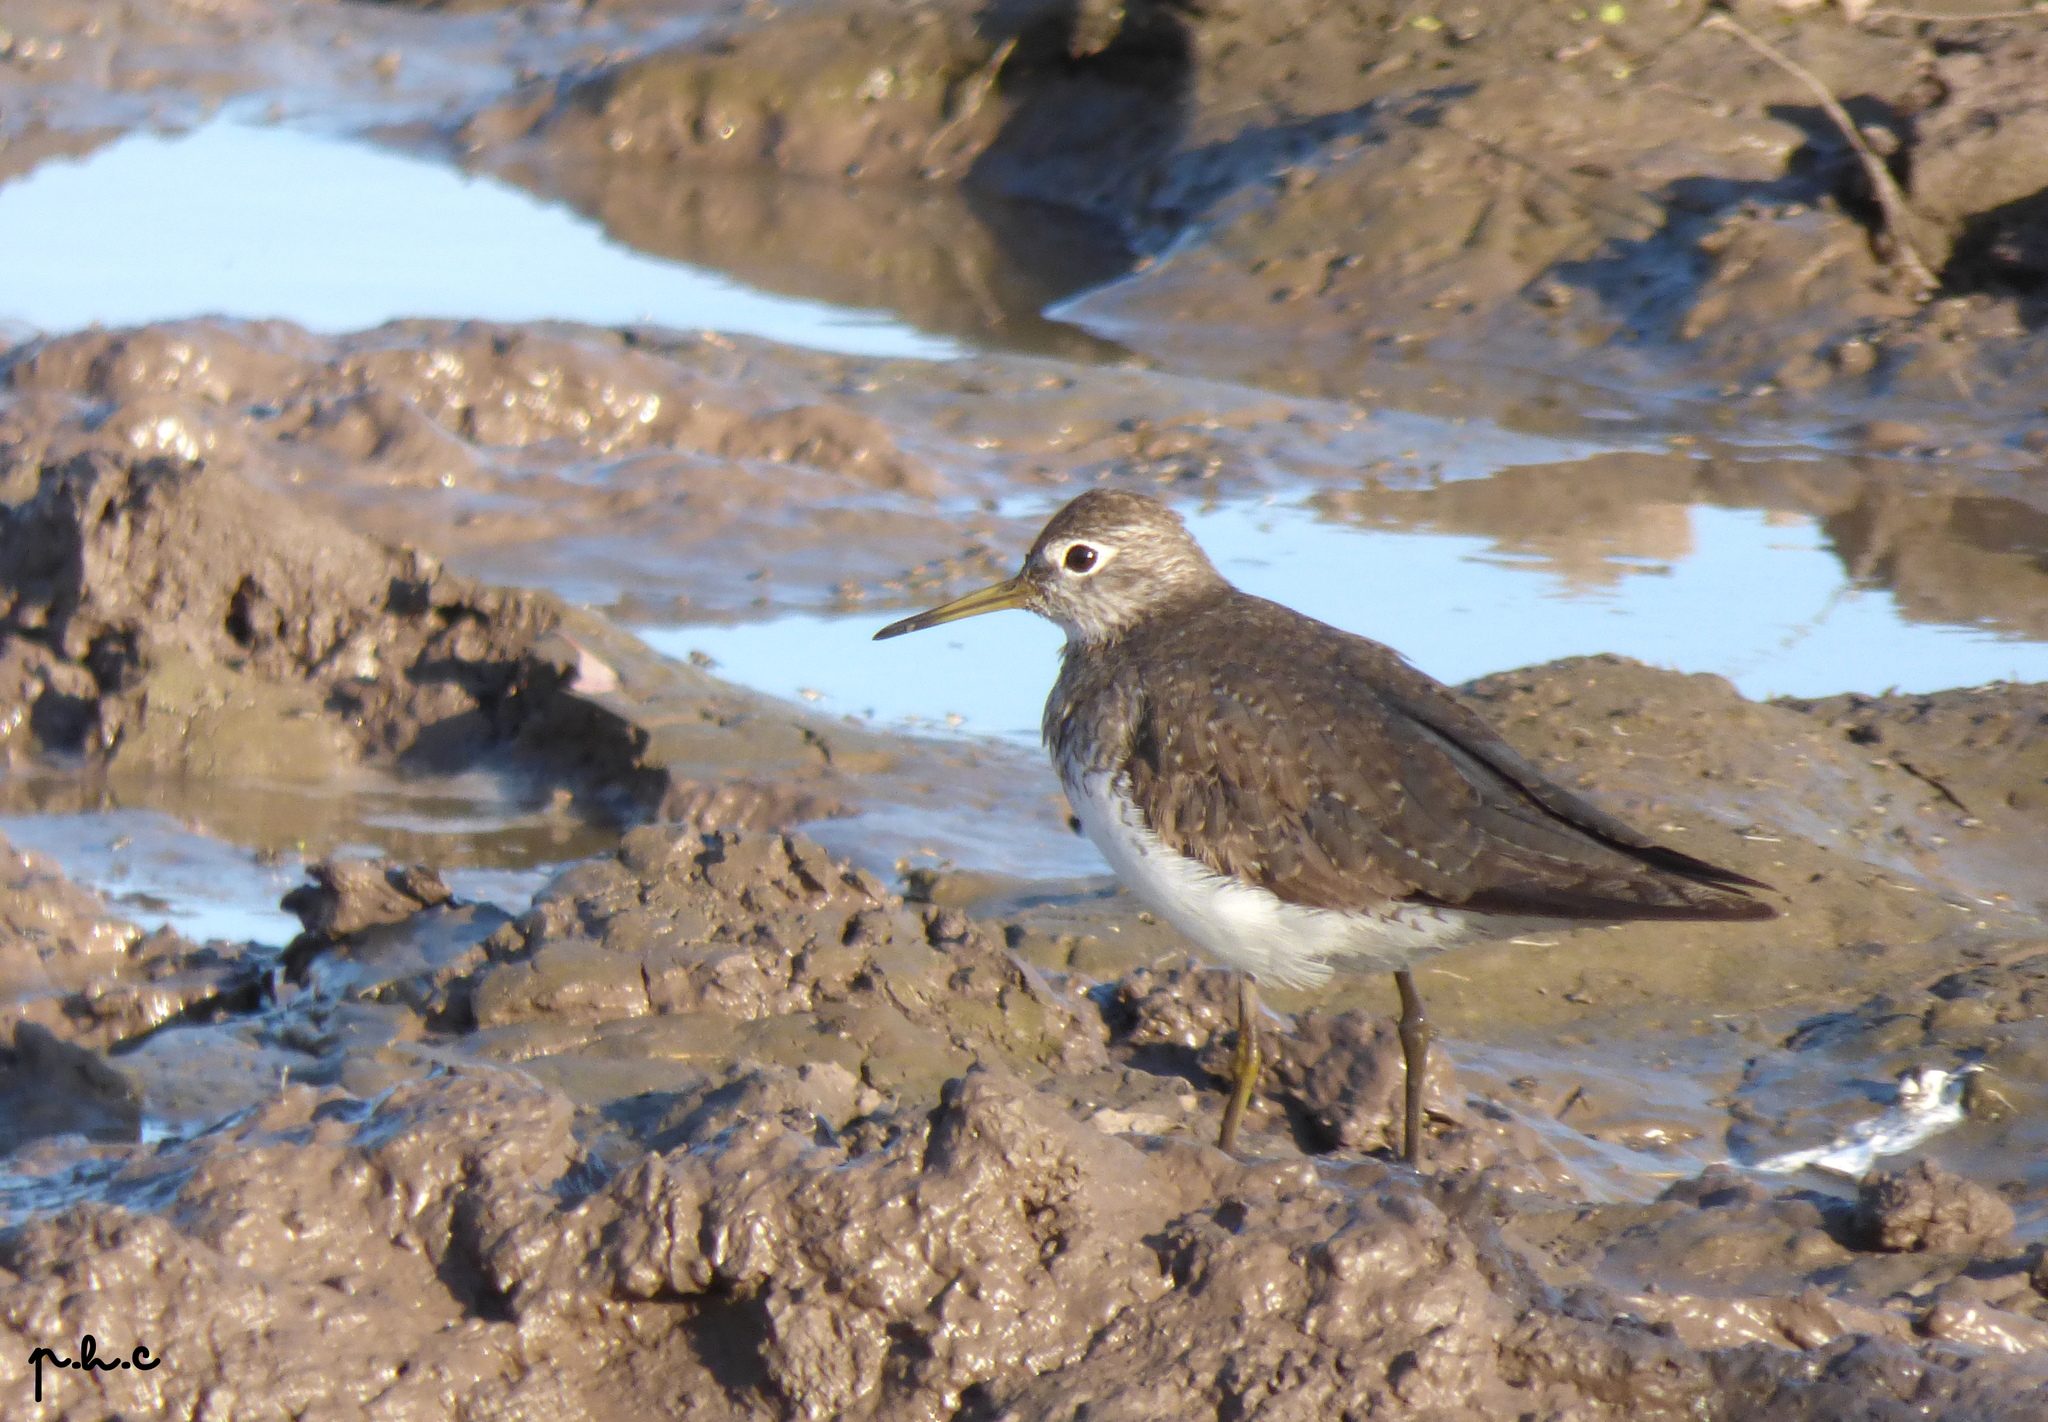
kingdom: Animalia
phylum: Chordata
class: Aves
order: Charadriiformes
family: Scolopacidae
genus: Tringa
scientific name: Tringa solitaria
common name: Solitary sandpiper
